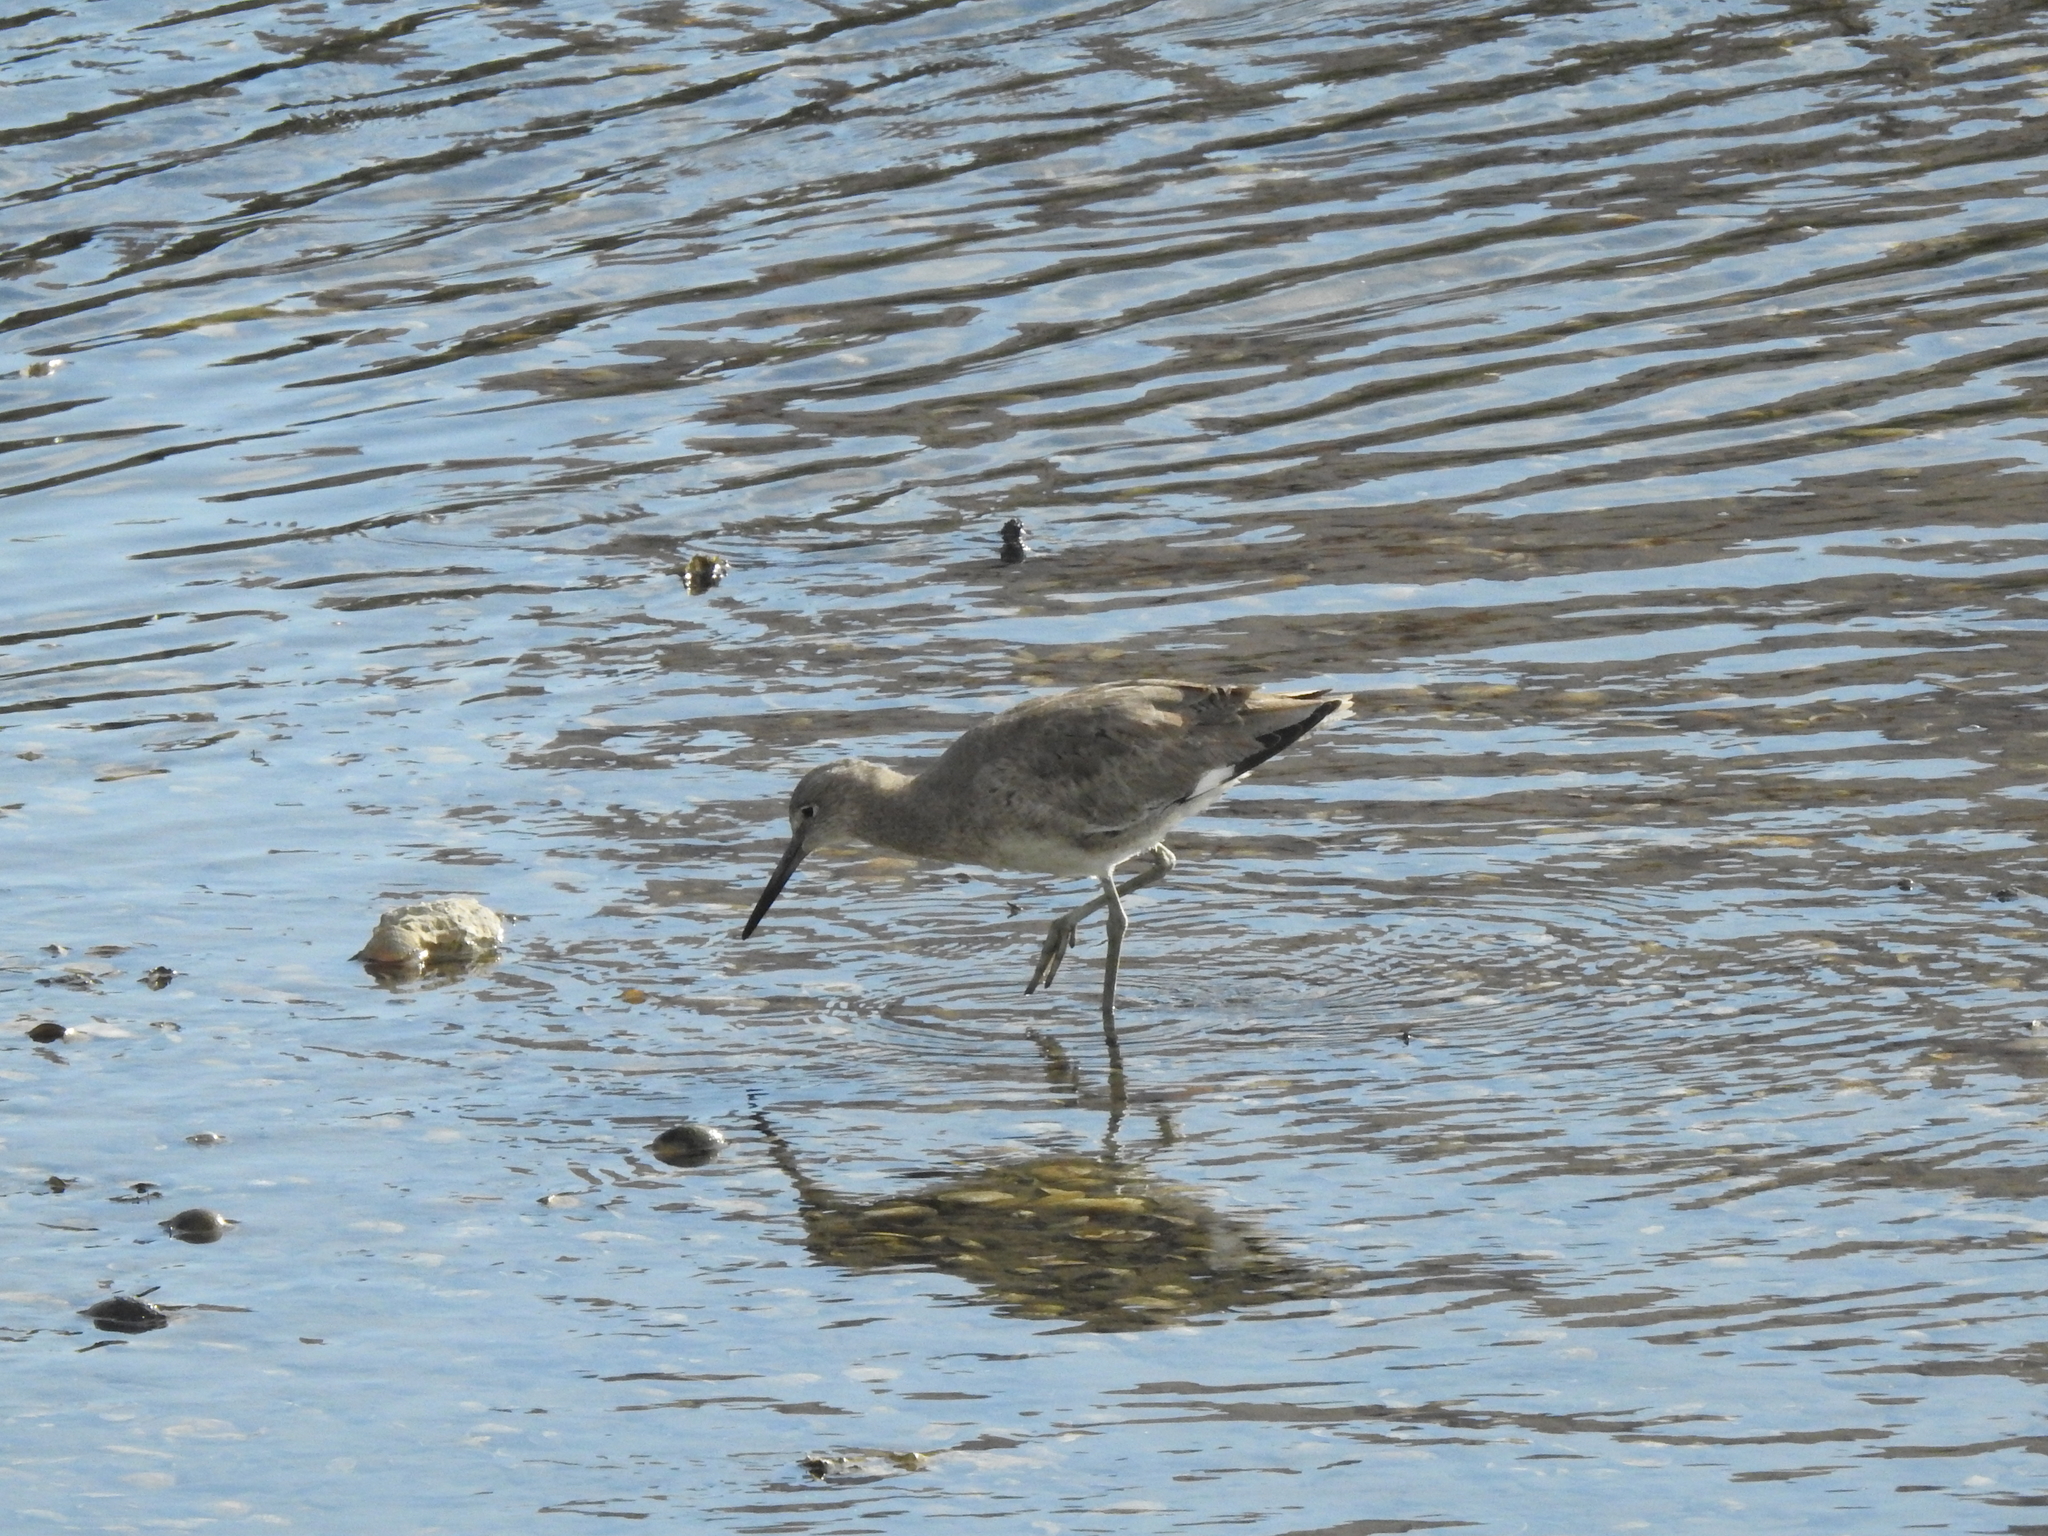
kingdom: Animalia
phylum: Chordata
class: Aves
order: Charadriiformes
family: Scolopacidae
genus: Tringa
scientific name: Tringa semipalmata
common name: Willet
